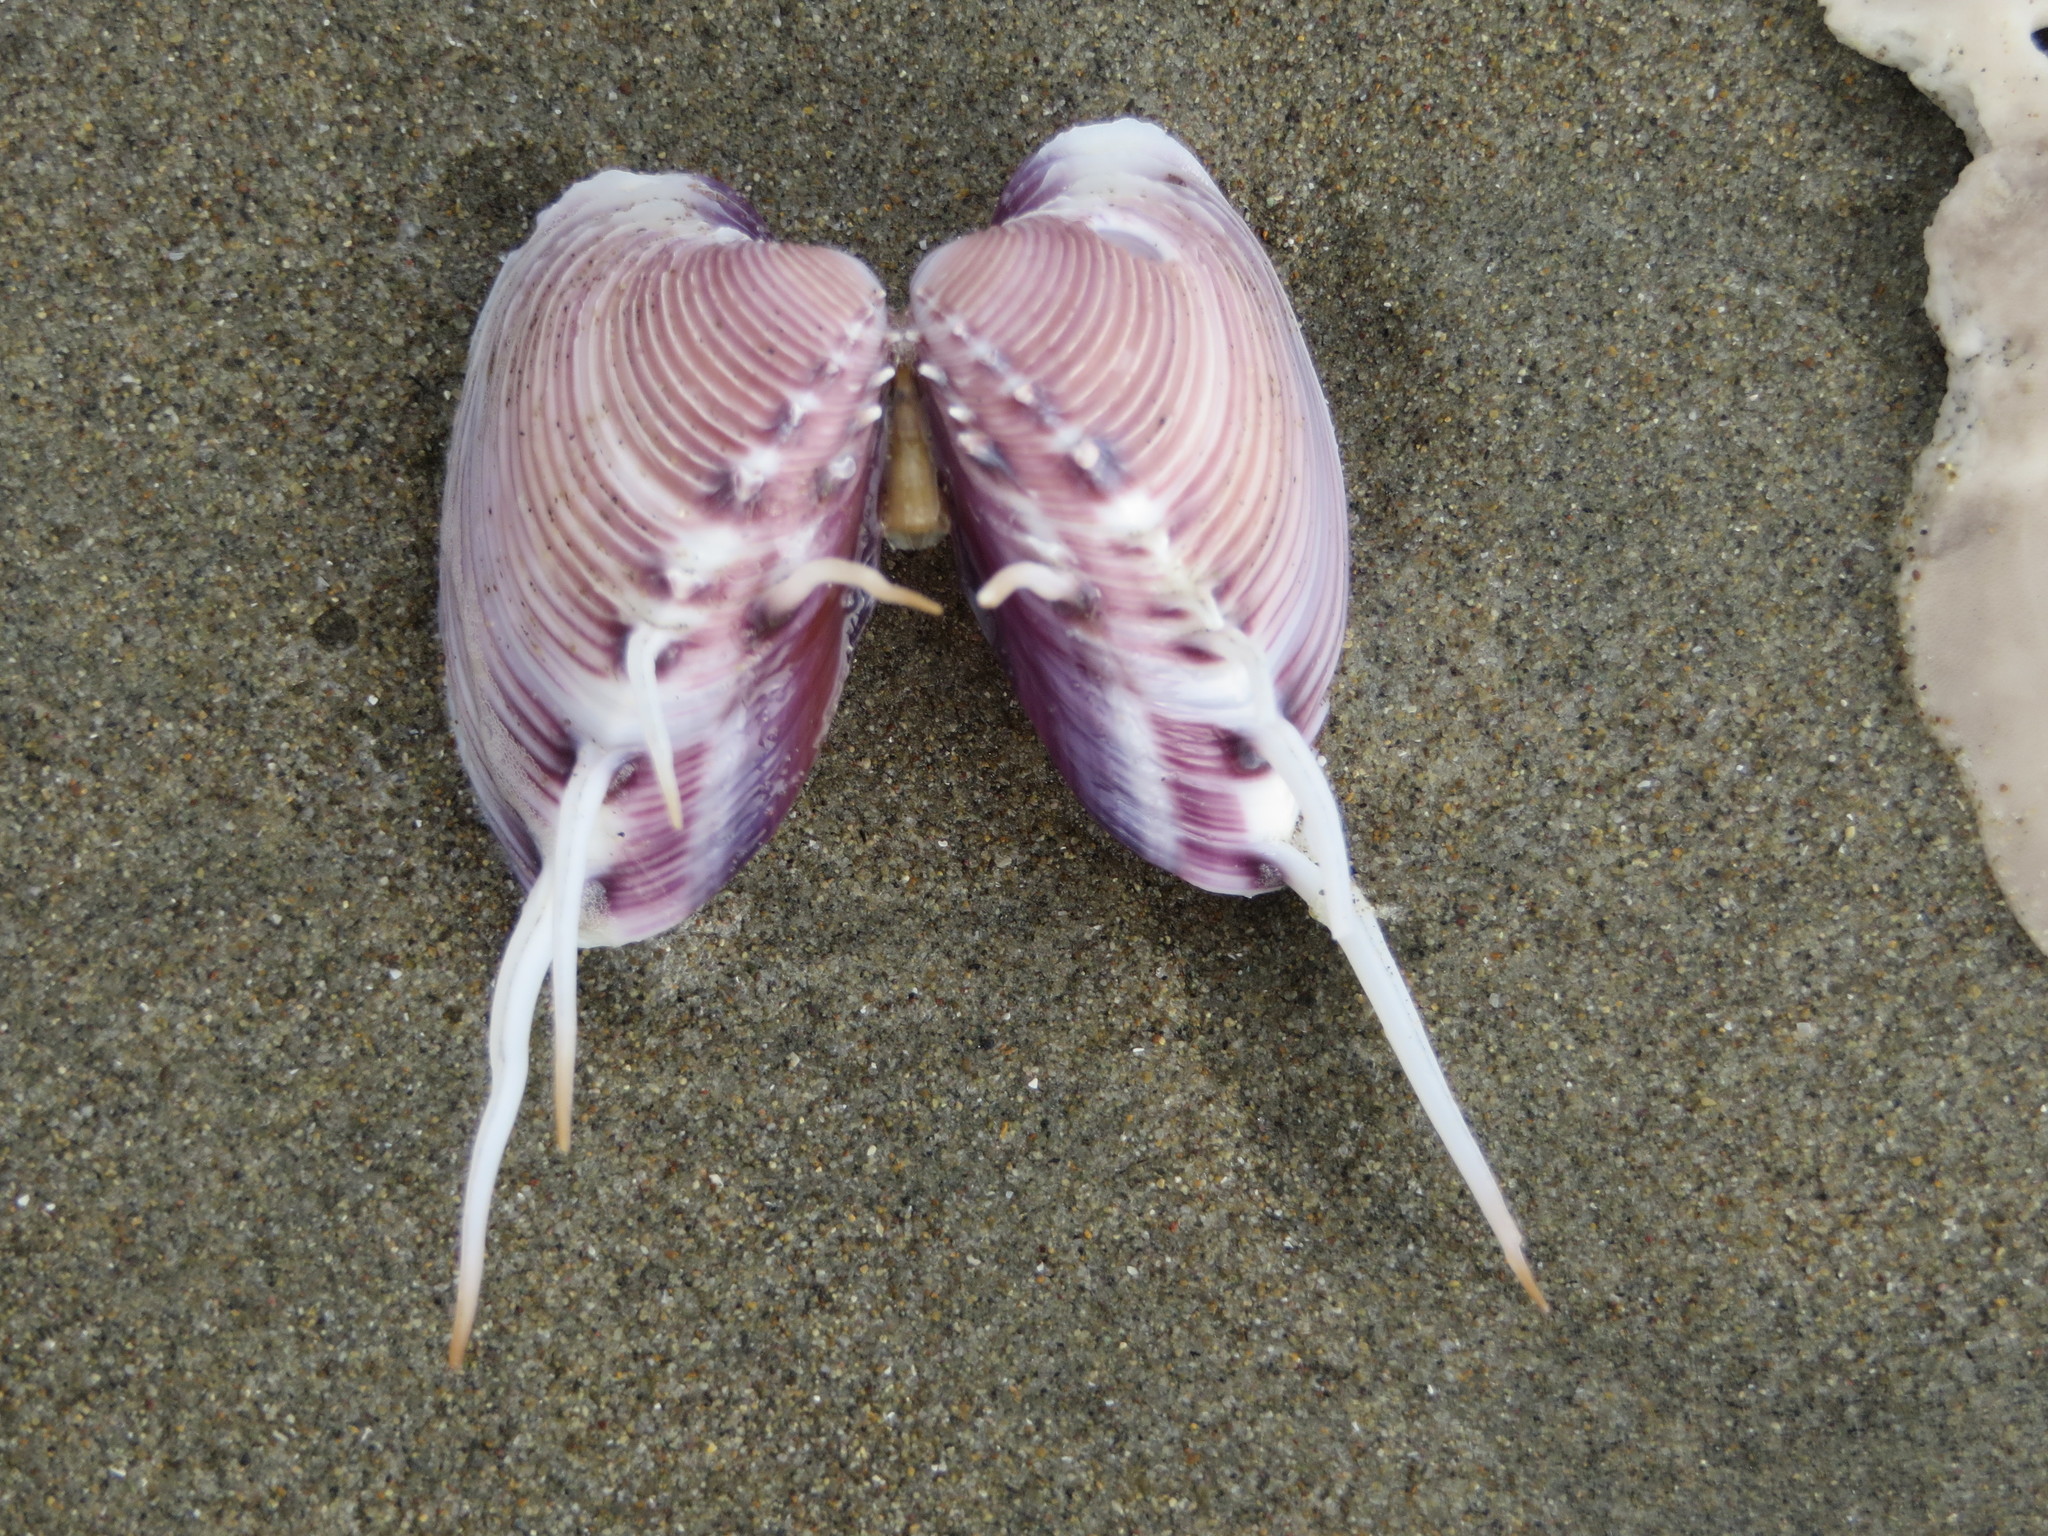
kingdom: Animalia
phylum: Mollusca
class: Bivalvia
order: Venerida
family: Veneridae
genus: Hysteroconcha
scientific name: Hysteroconcha lupanaria
